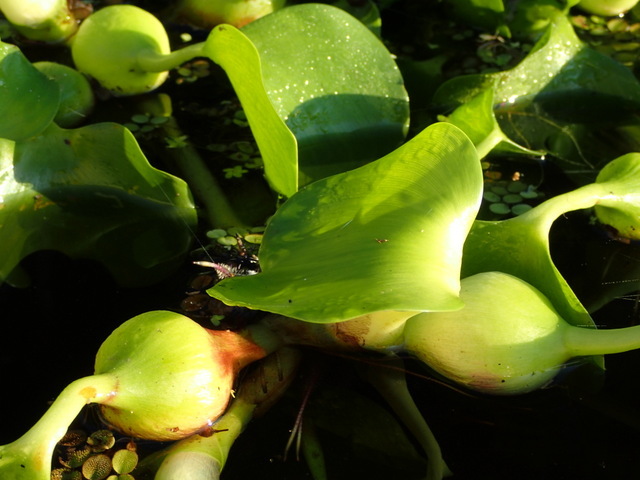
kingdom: Plantae
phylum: Tracheophyta
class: Liliopsida
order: Commelinales
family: Pontederiaceae
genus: Pontederia
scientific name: Pontederia crassipes
